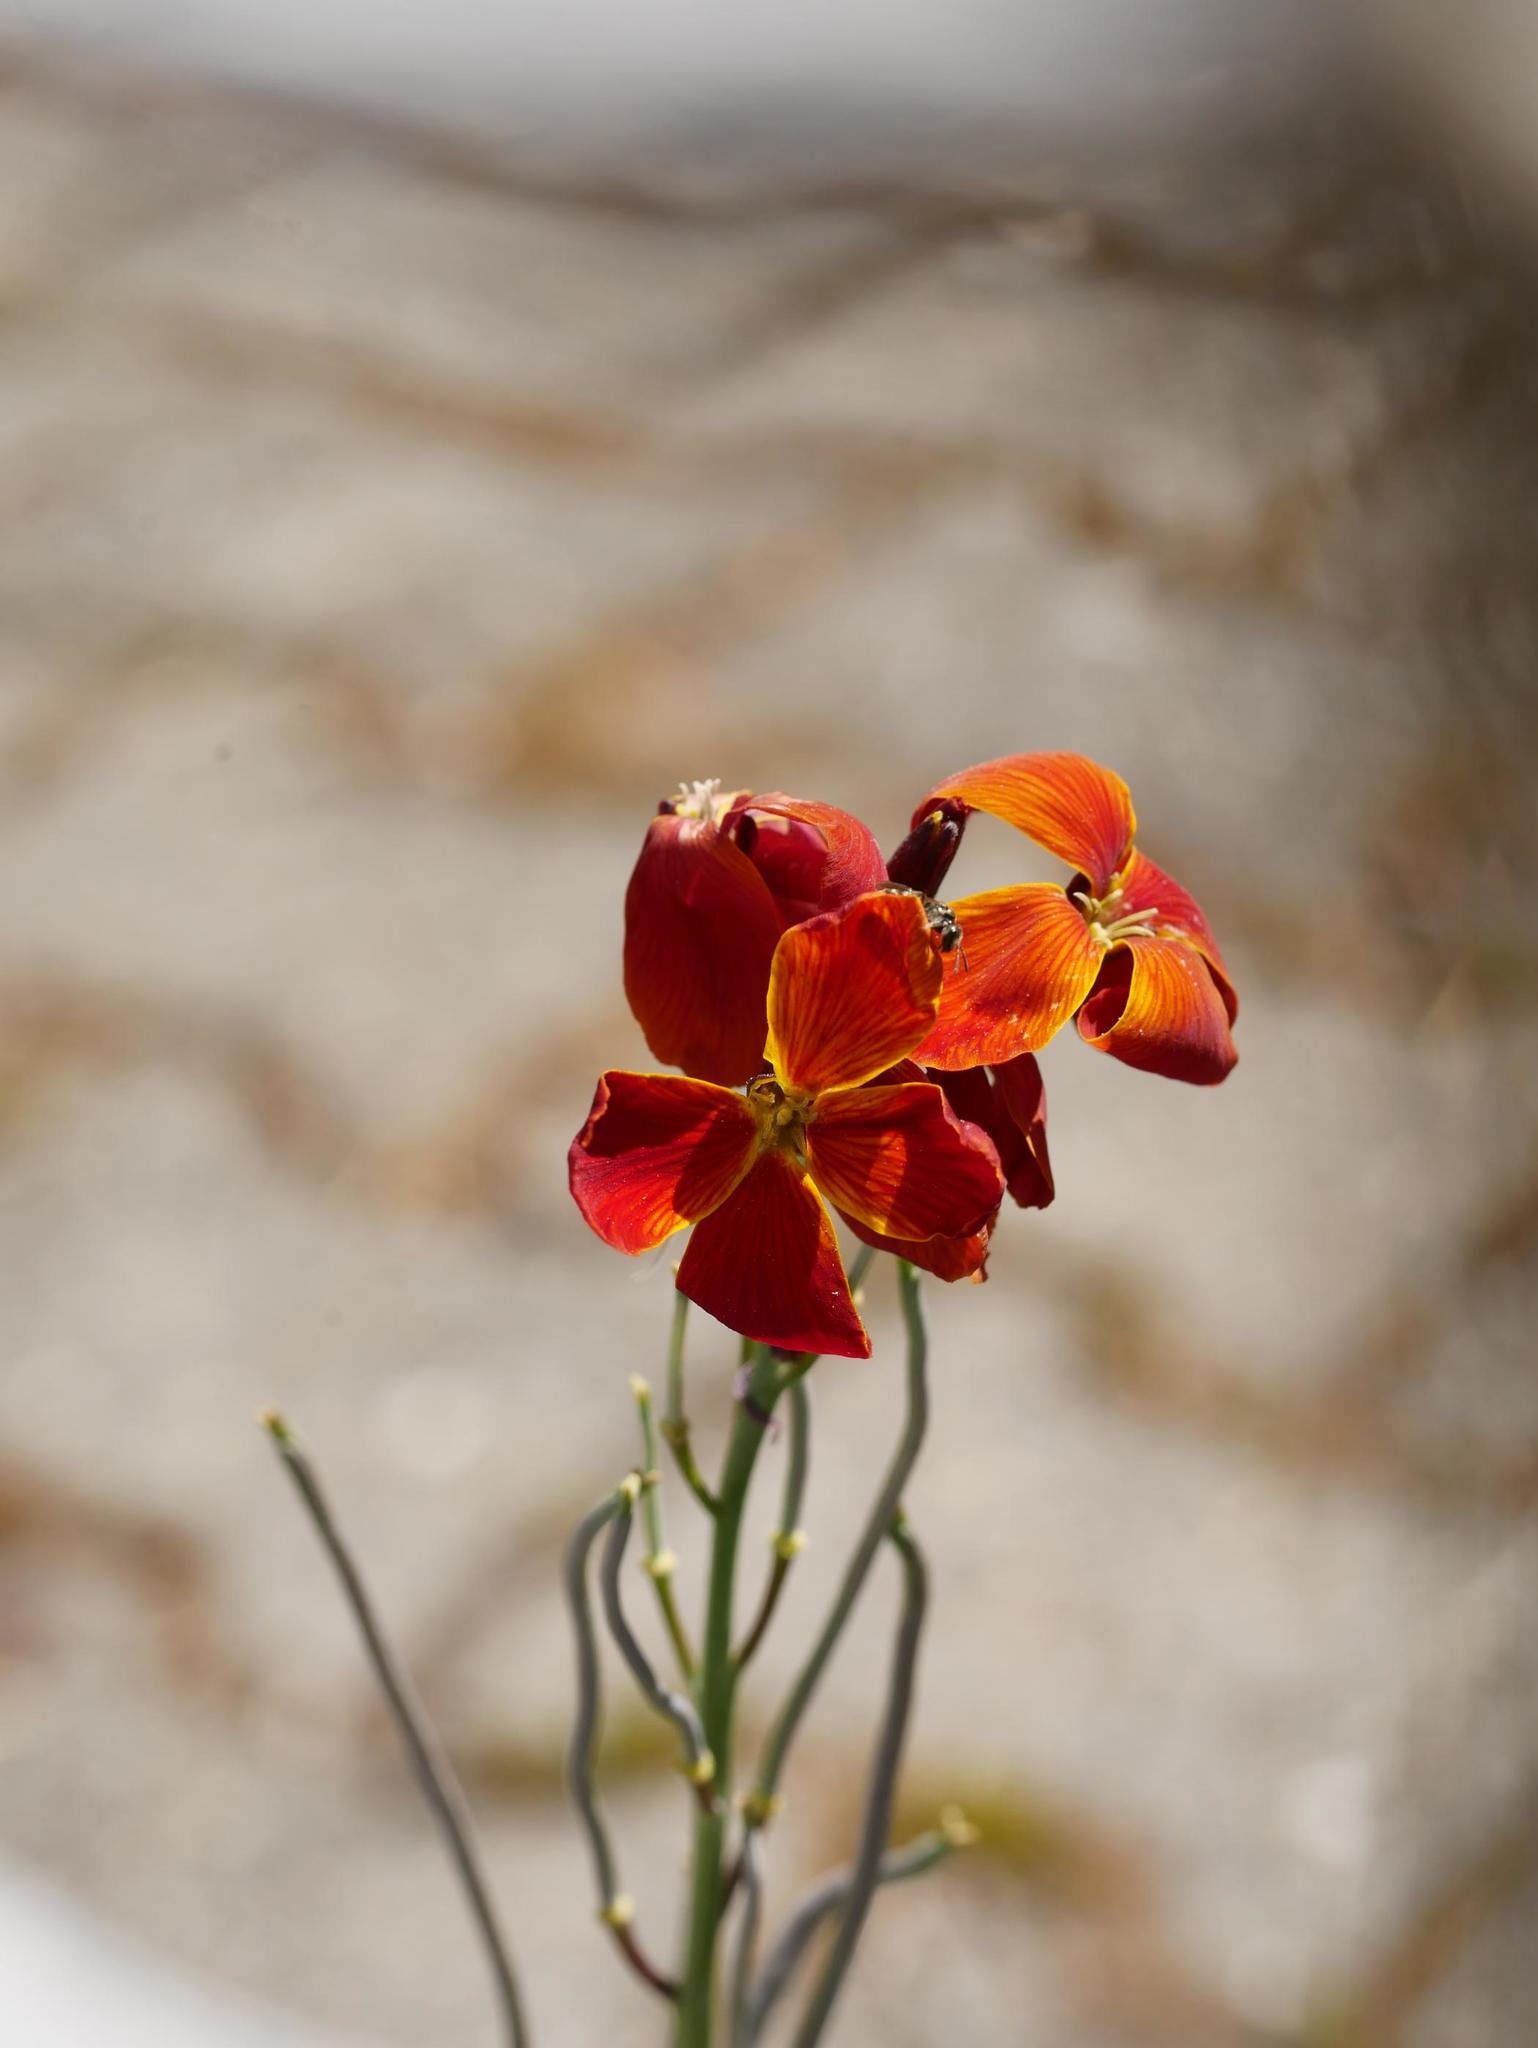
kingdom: Plantae
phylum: Tracheophyta
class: Magnoliopsida
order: Brassicales
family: Brassicaceae
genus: Erysimum
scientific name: Erysimum cheiri
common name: Wallflower
